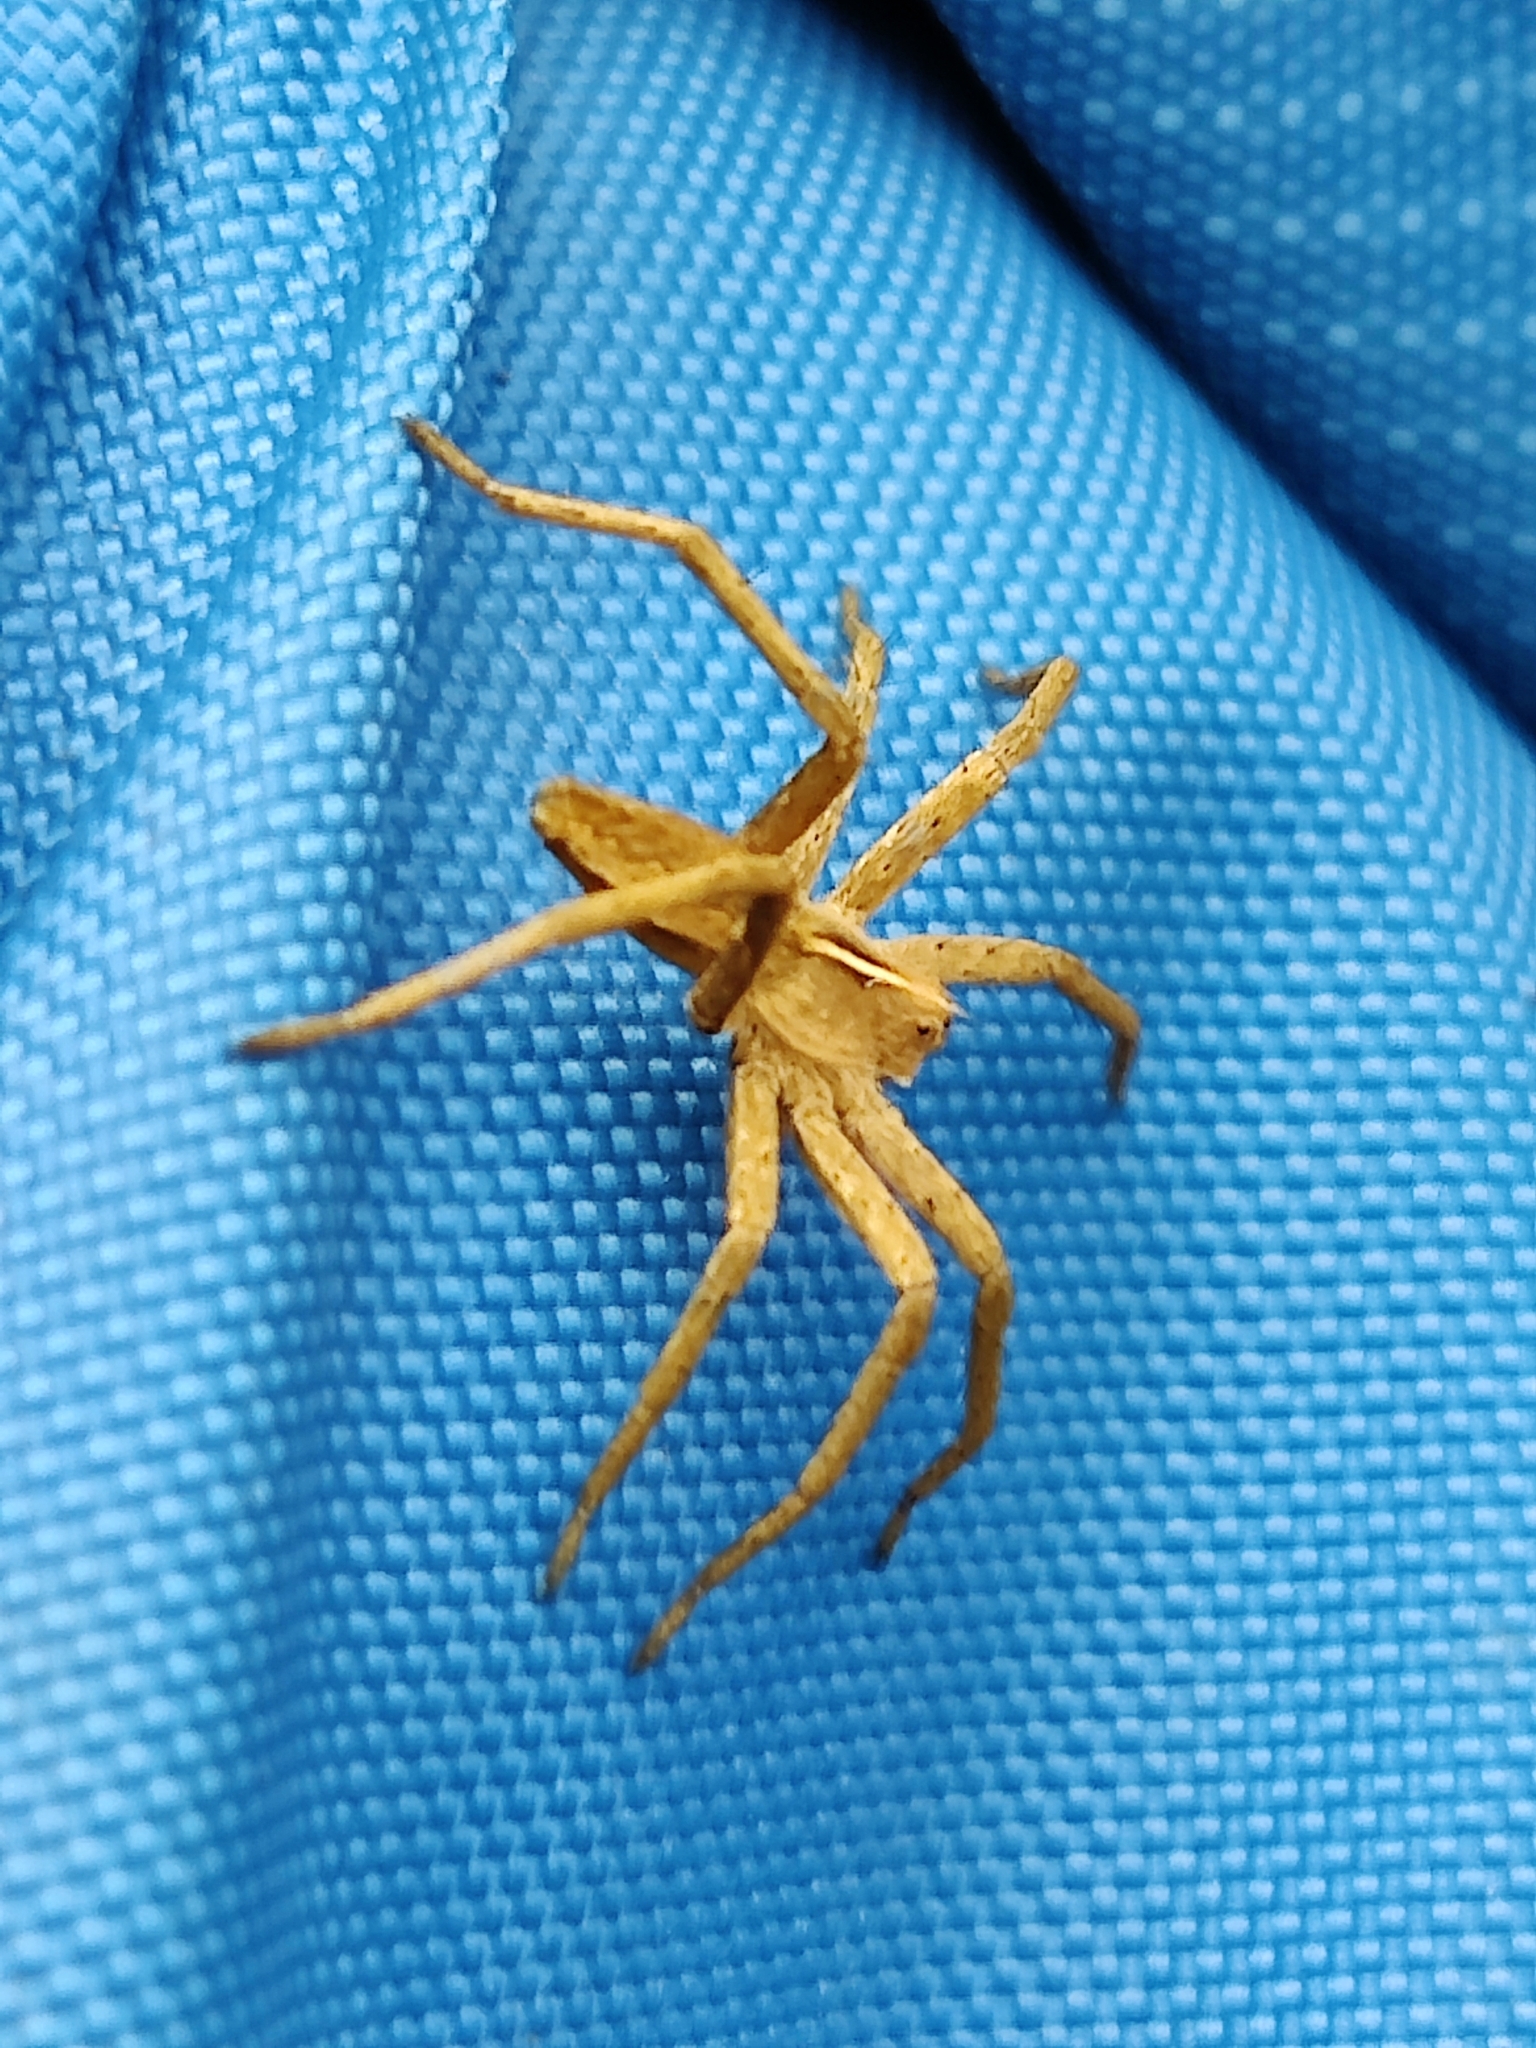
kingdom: Animalia
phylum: Arthropoda
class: Arachnida
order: Araneae
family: Pisauridae
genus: Pisaura
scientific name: Pisaura mirabilis
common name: Tent spider
